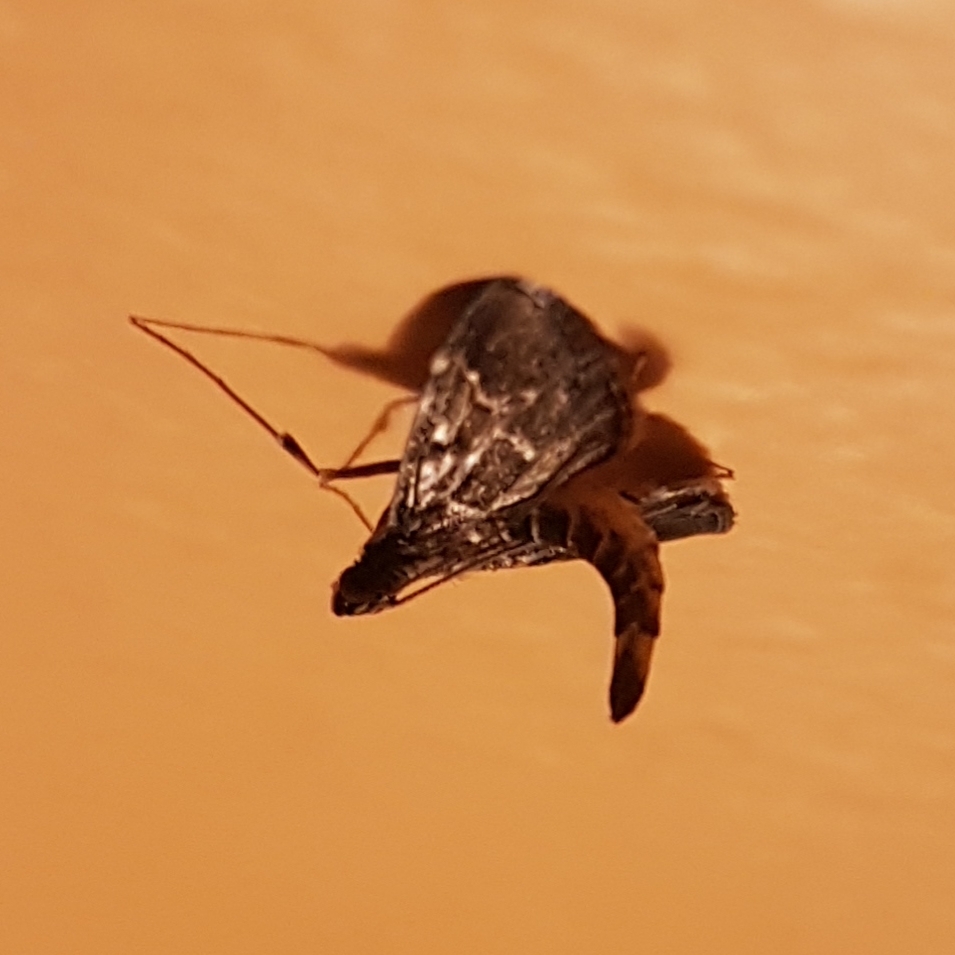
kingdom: Animalia
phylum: Arthropoda
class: Insecta
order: Lepidoptera
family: Crambidae
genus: Duponchelia
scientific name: Duponchelia fovealis
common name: Crambid moth
